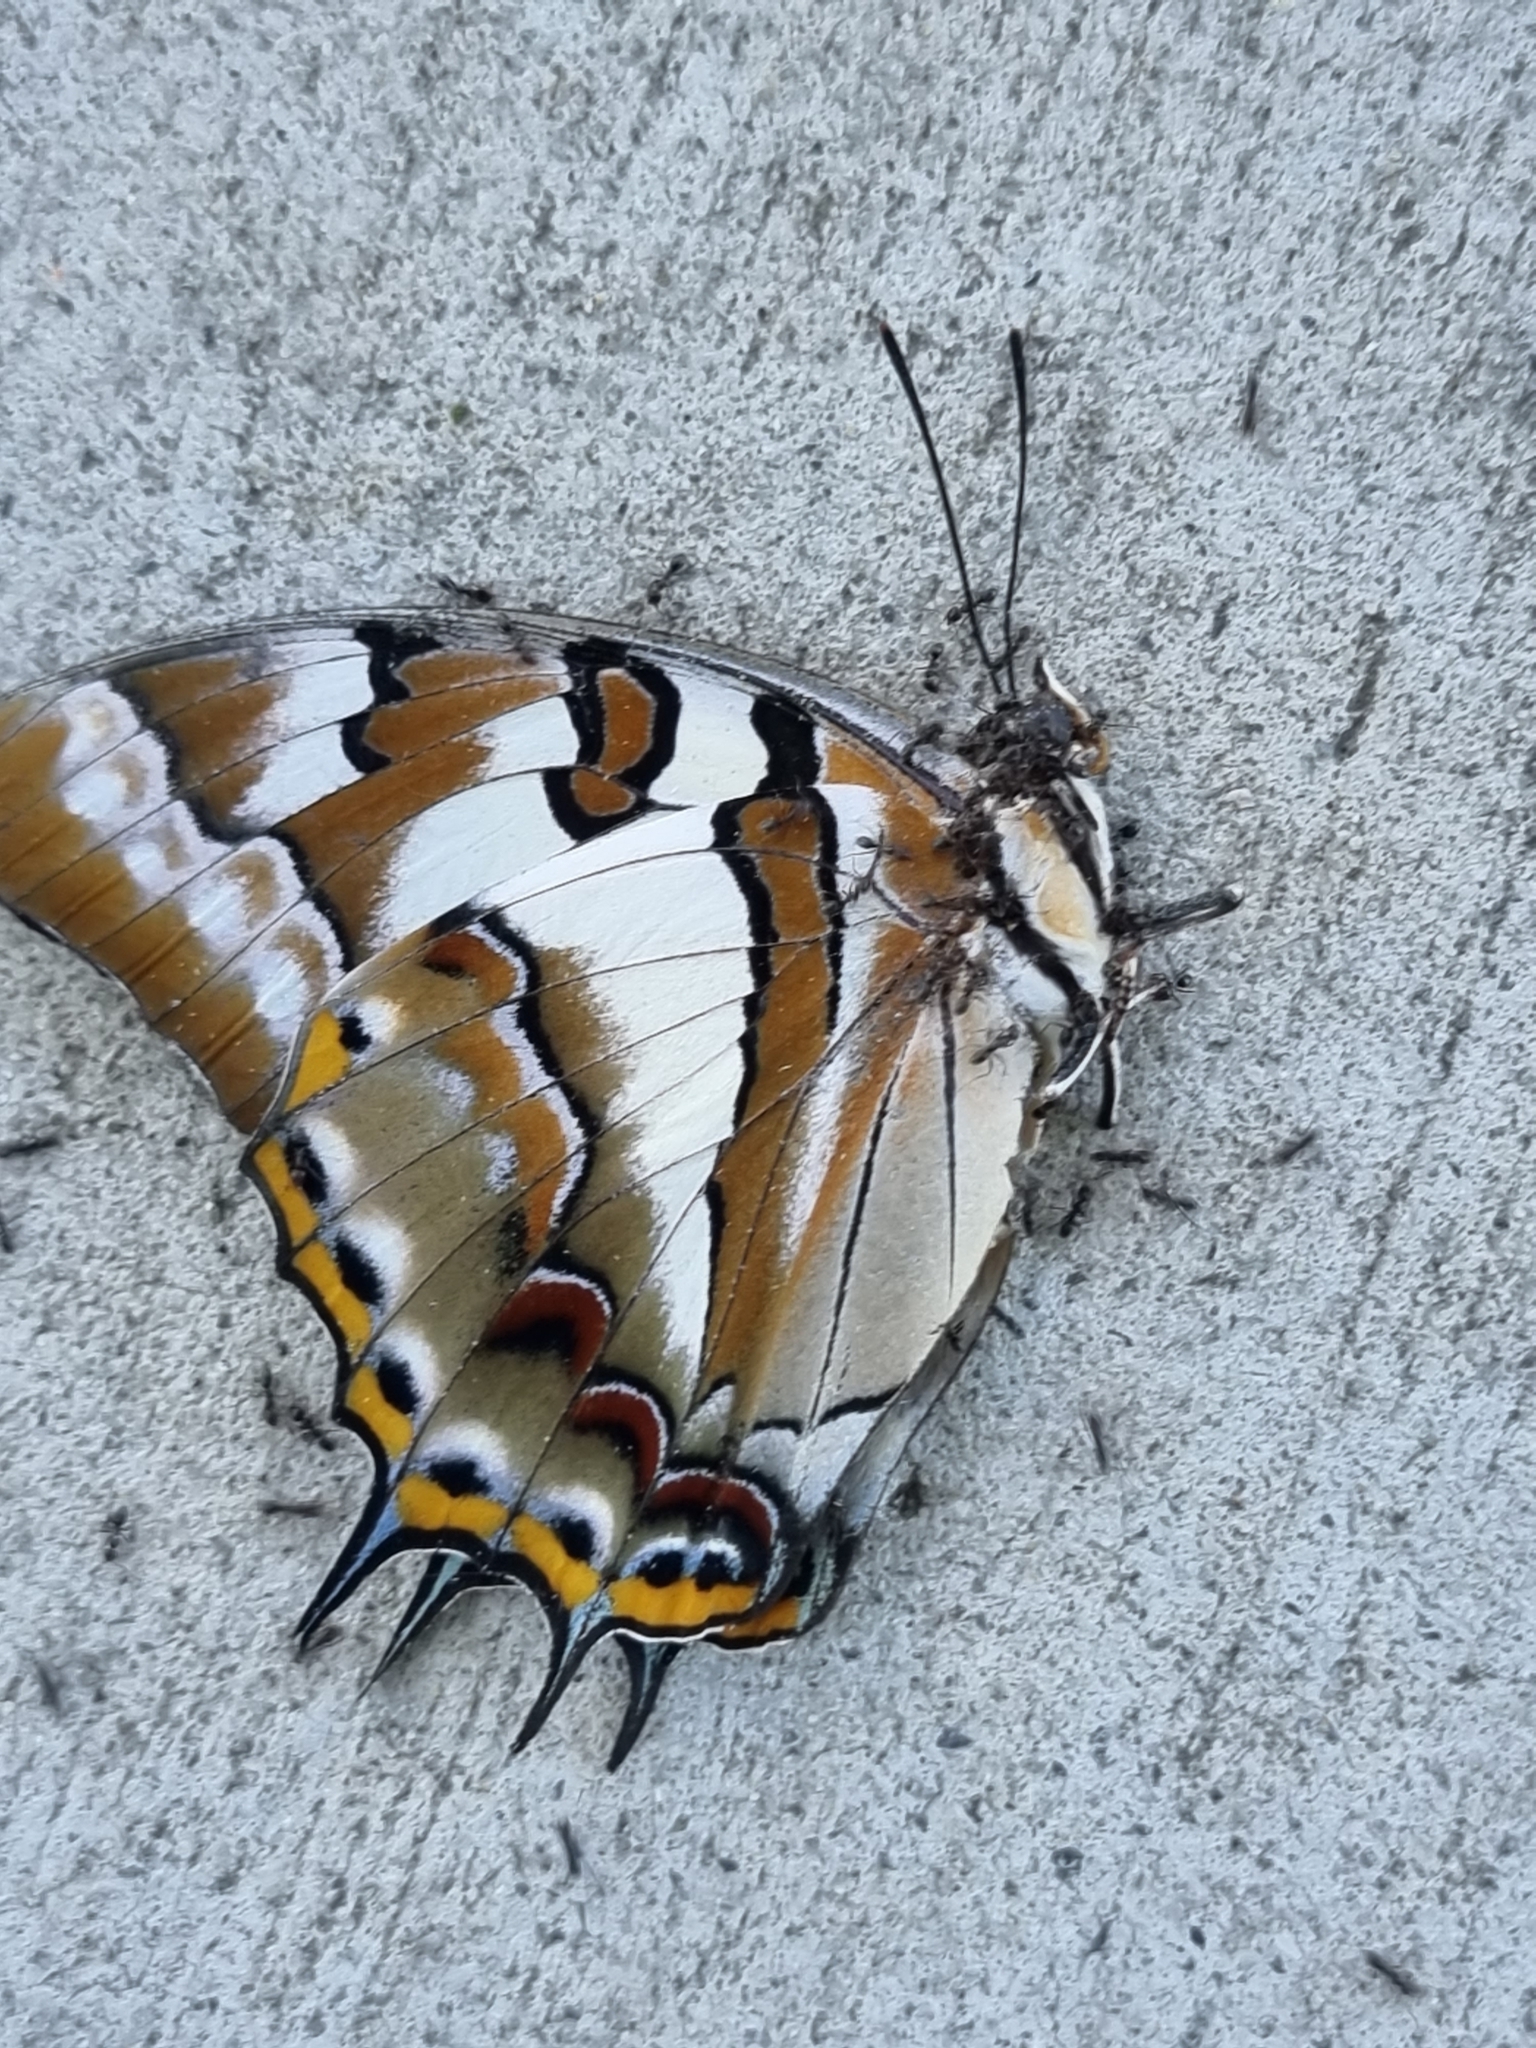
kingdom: Animalia
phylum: Arthropoda
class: Insecta
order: Lepidoptera
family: Nymphalidae
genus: Charaxes
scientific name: Charaxes
